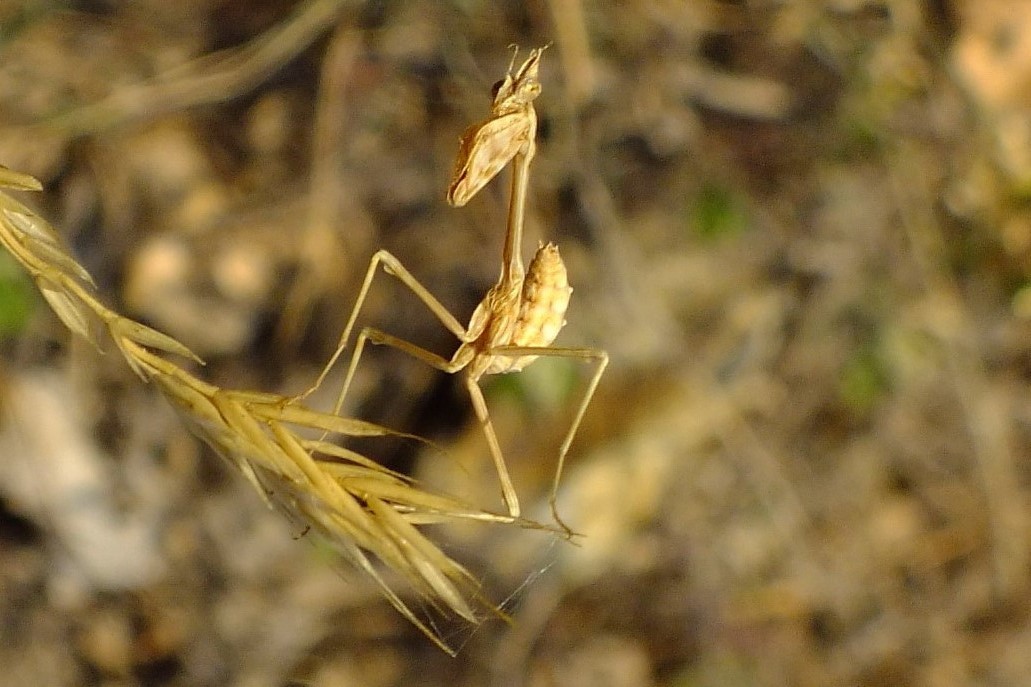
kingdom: Animalia
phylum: Arthropoda
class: Insecta
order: Mantodea
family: Empusidae
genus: Empusa
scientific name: Empusa fasciata
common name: Devil's mare
